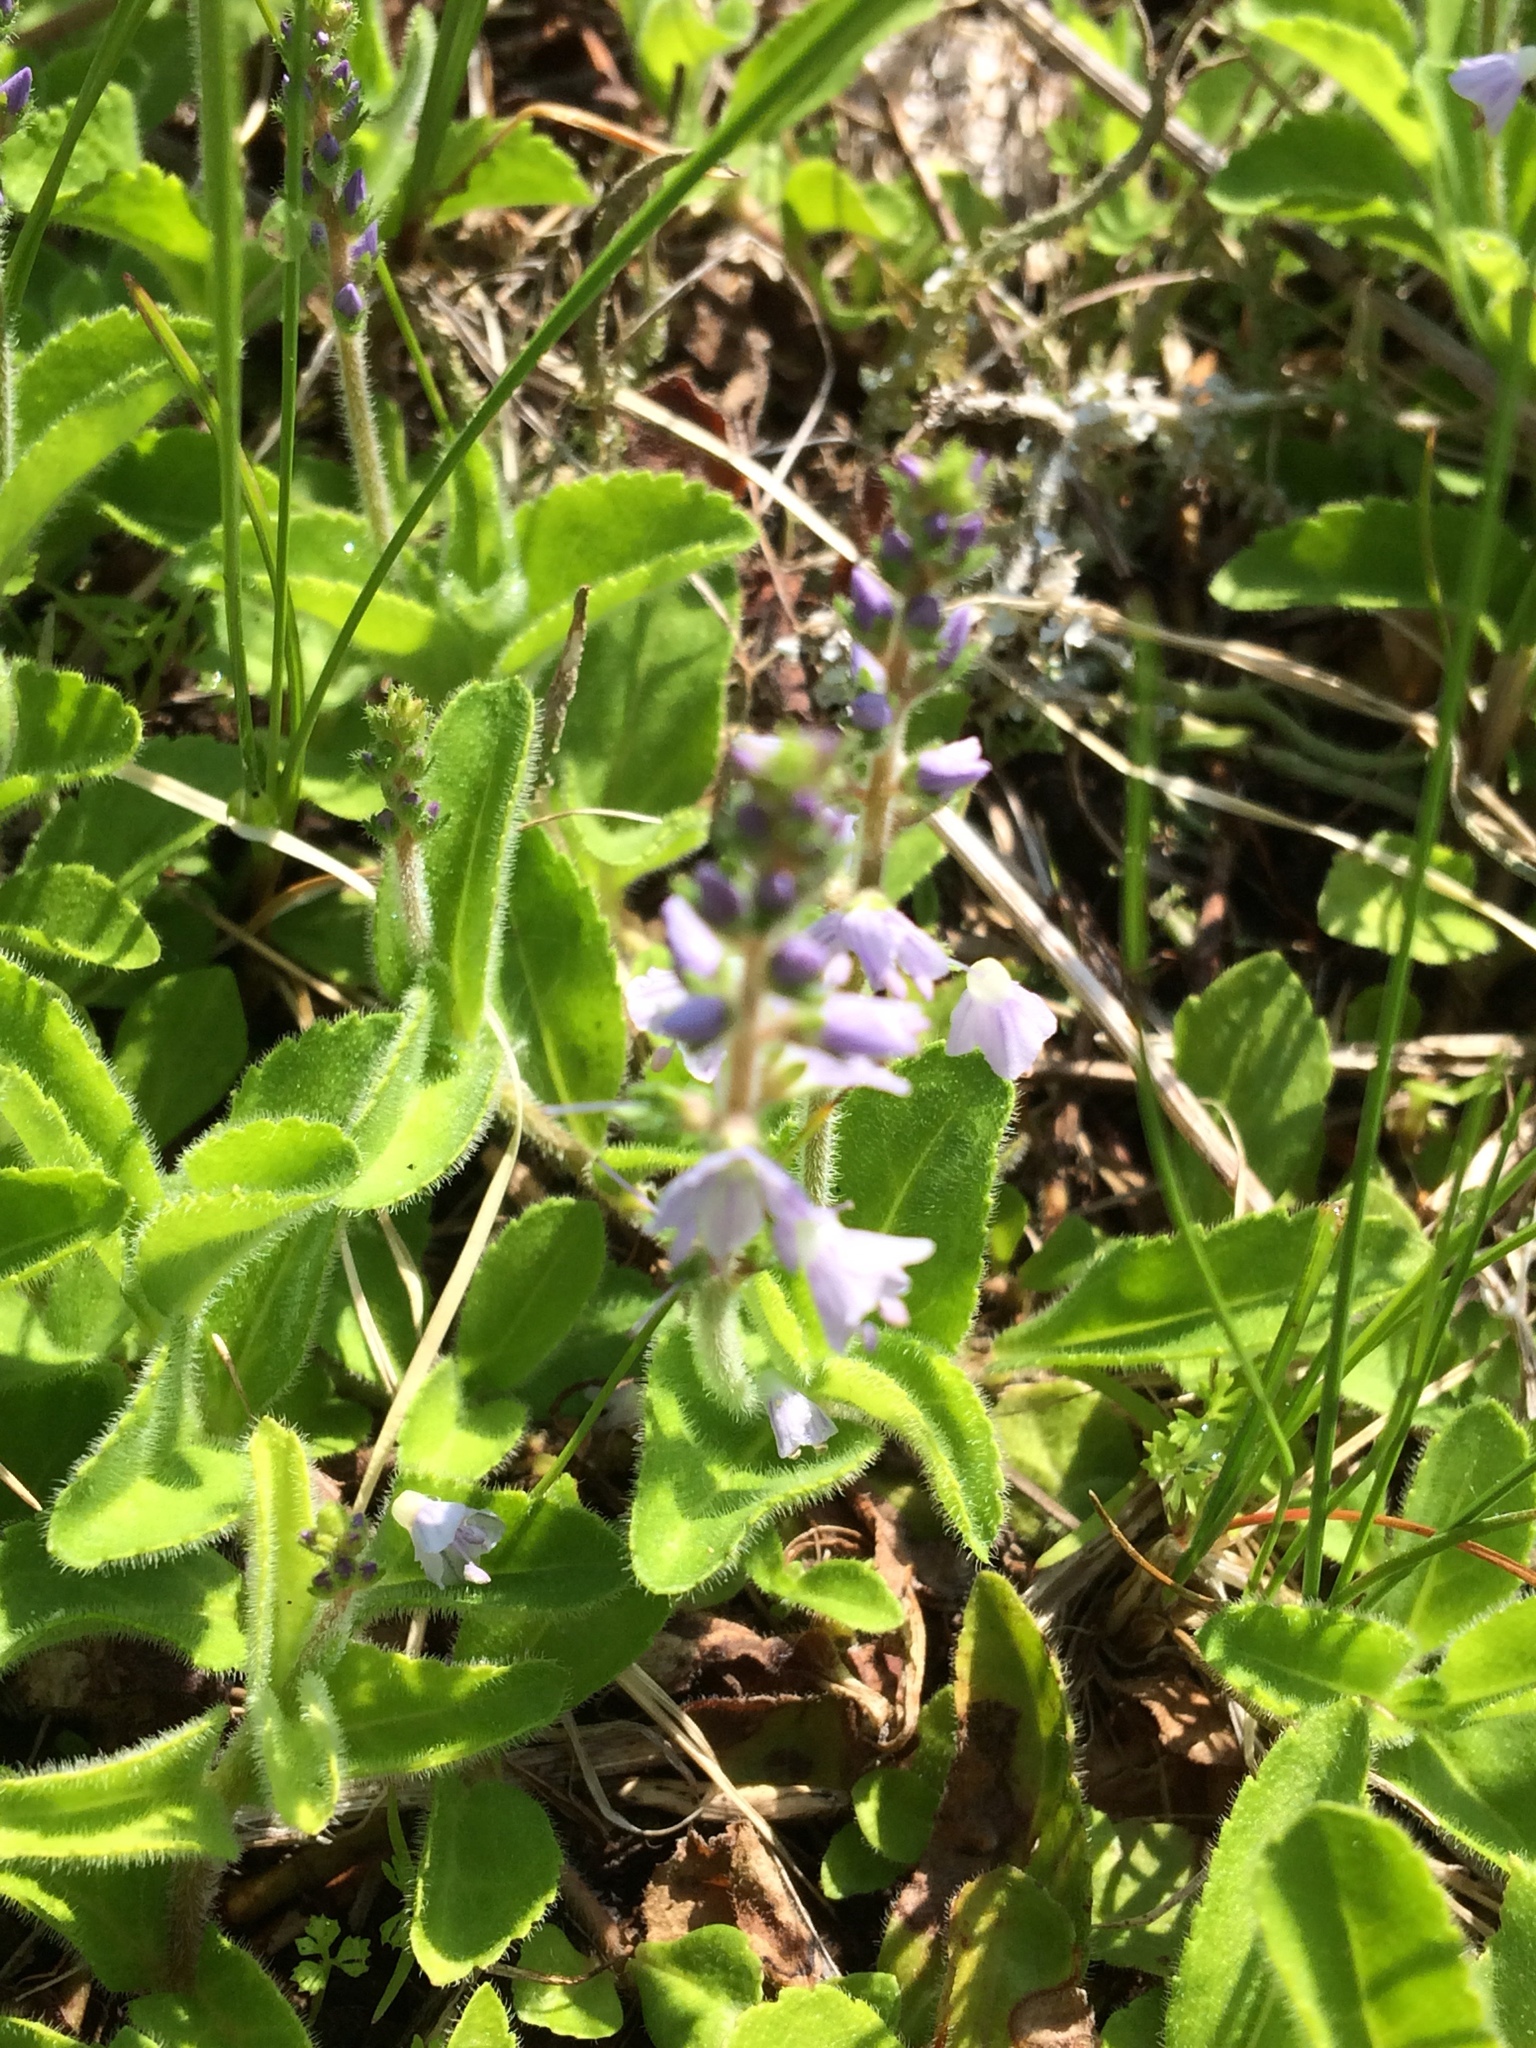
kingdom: Plantae
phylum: Tracheophyta
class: Magnoliopsida
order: Lamiales
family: Plantaginaceae
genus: Veronica
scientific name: Veronica officinalis
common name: Common speedwell
